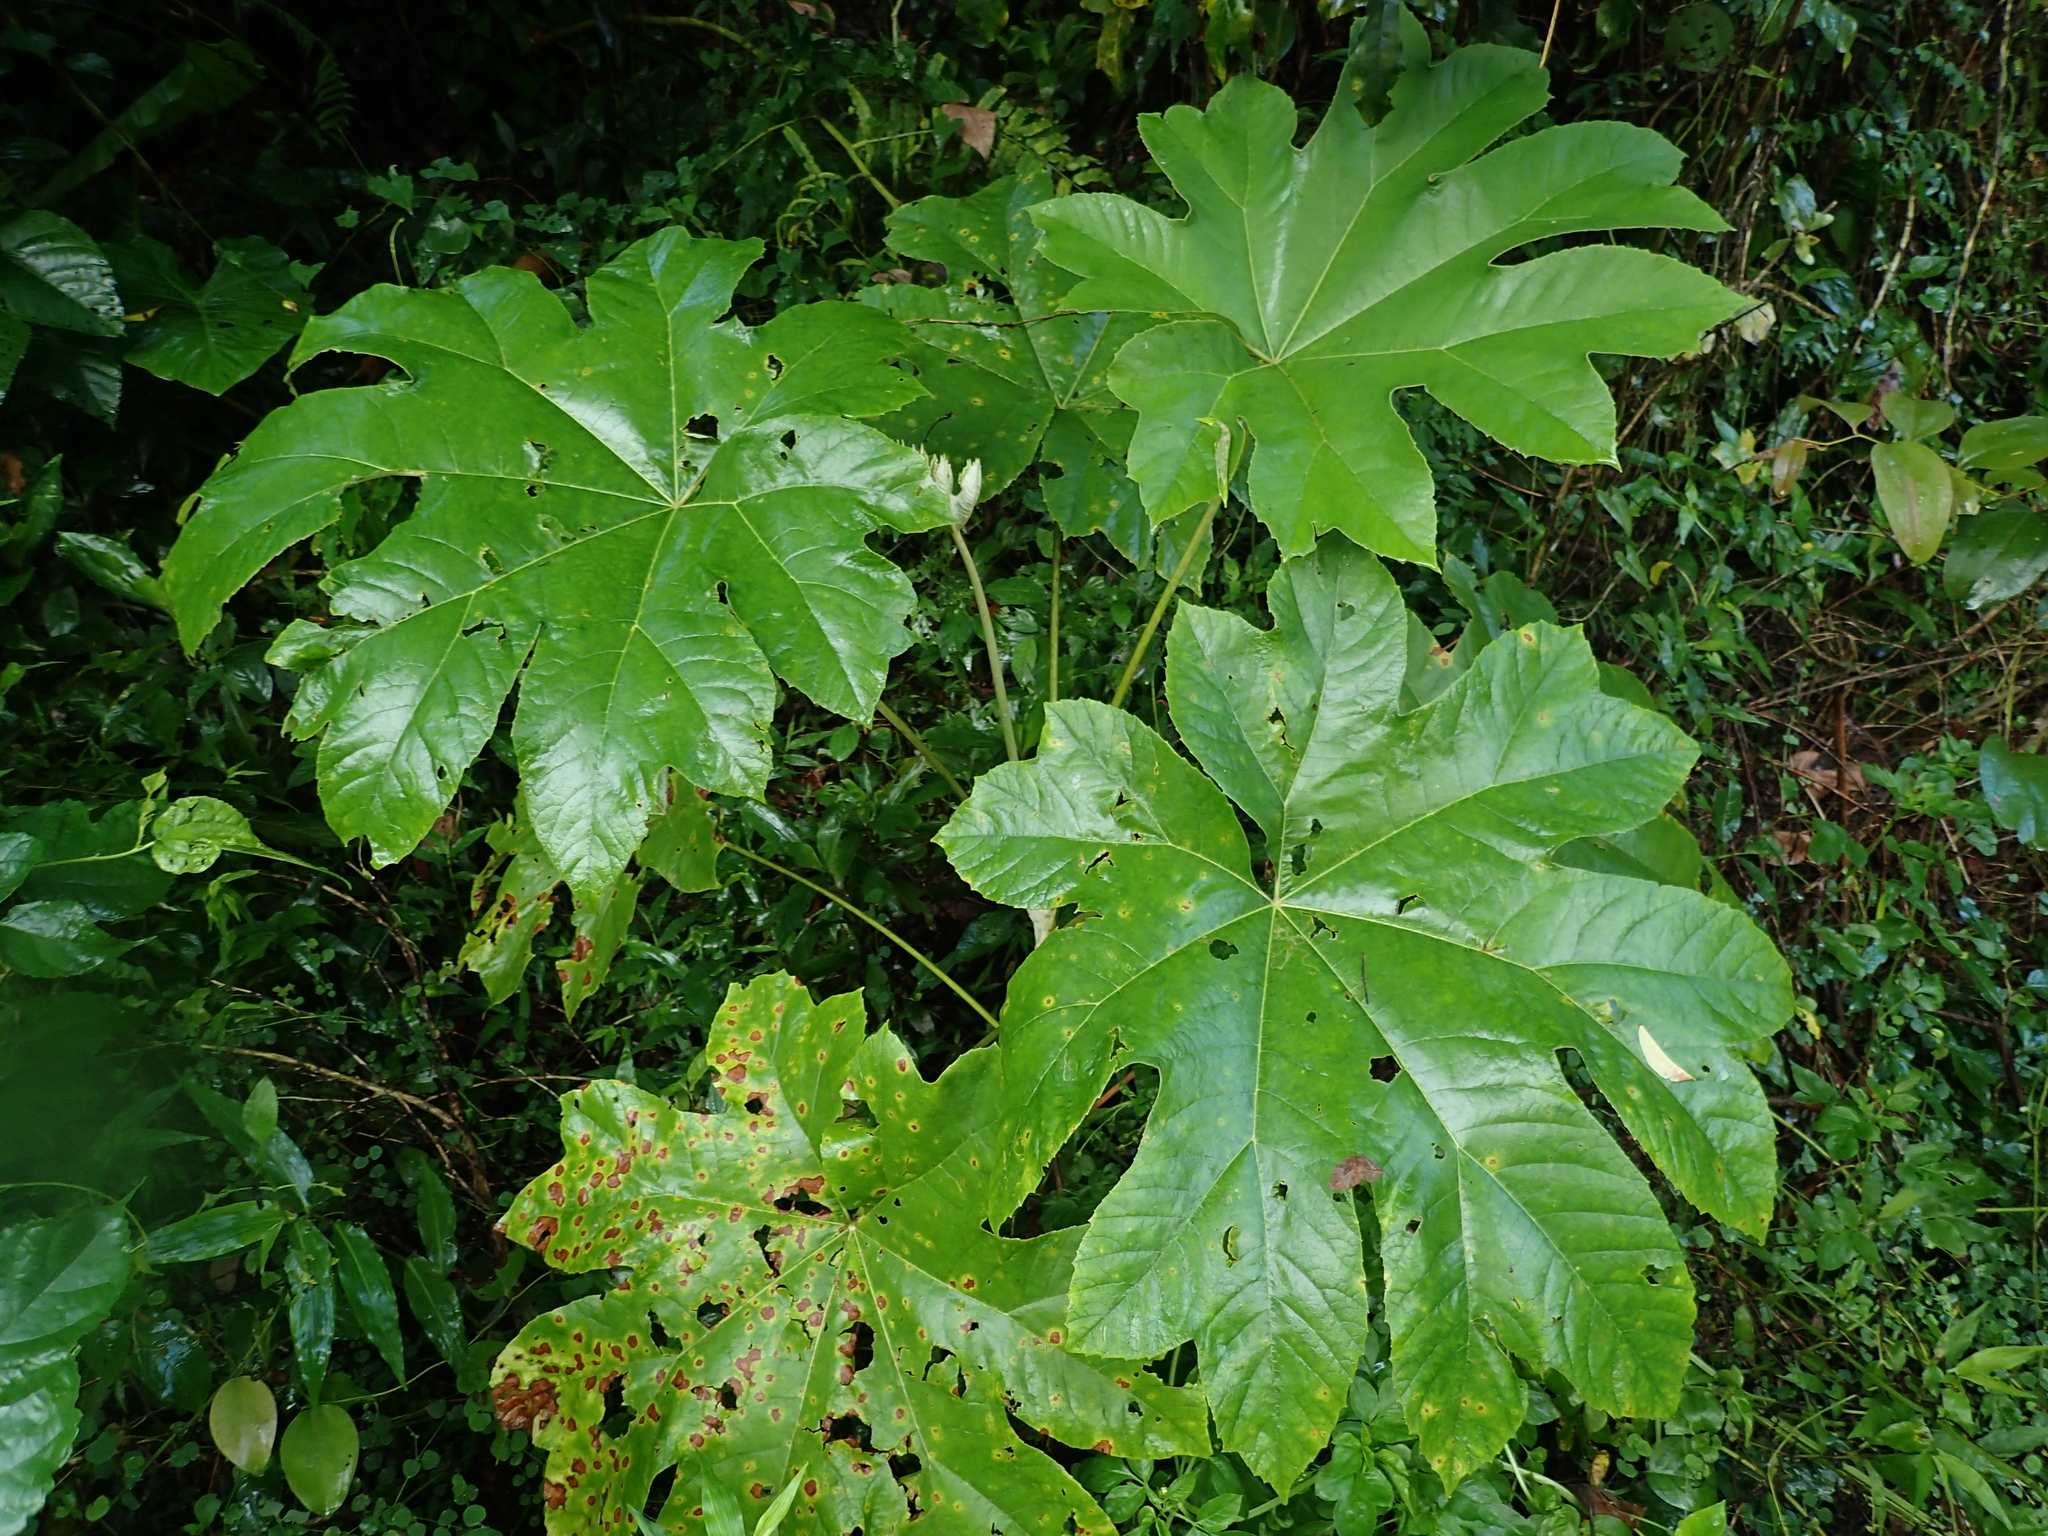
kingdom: Plantae
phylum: Tracheophyta
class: Magnoliopsida
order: Apiales
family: Araliaceae
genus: Tetrapanax
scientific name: Tetrapanax papyrifer
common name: Rice-paper plant
